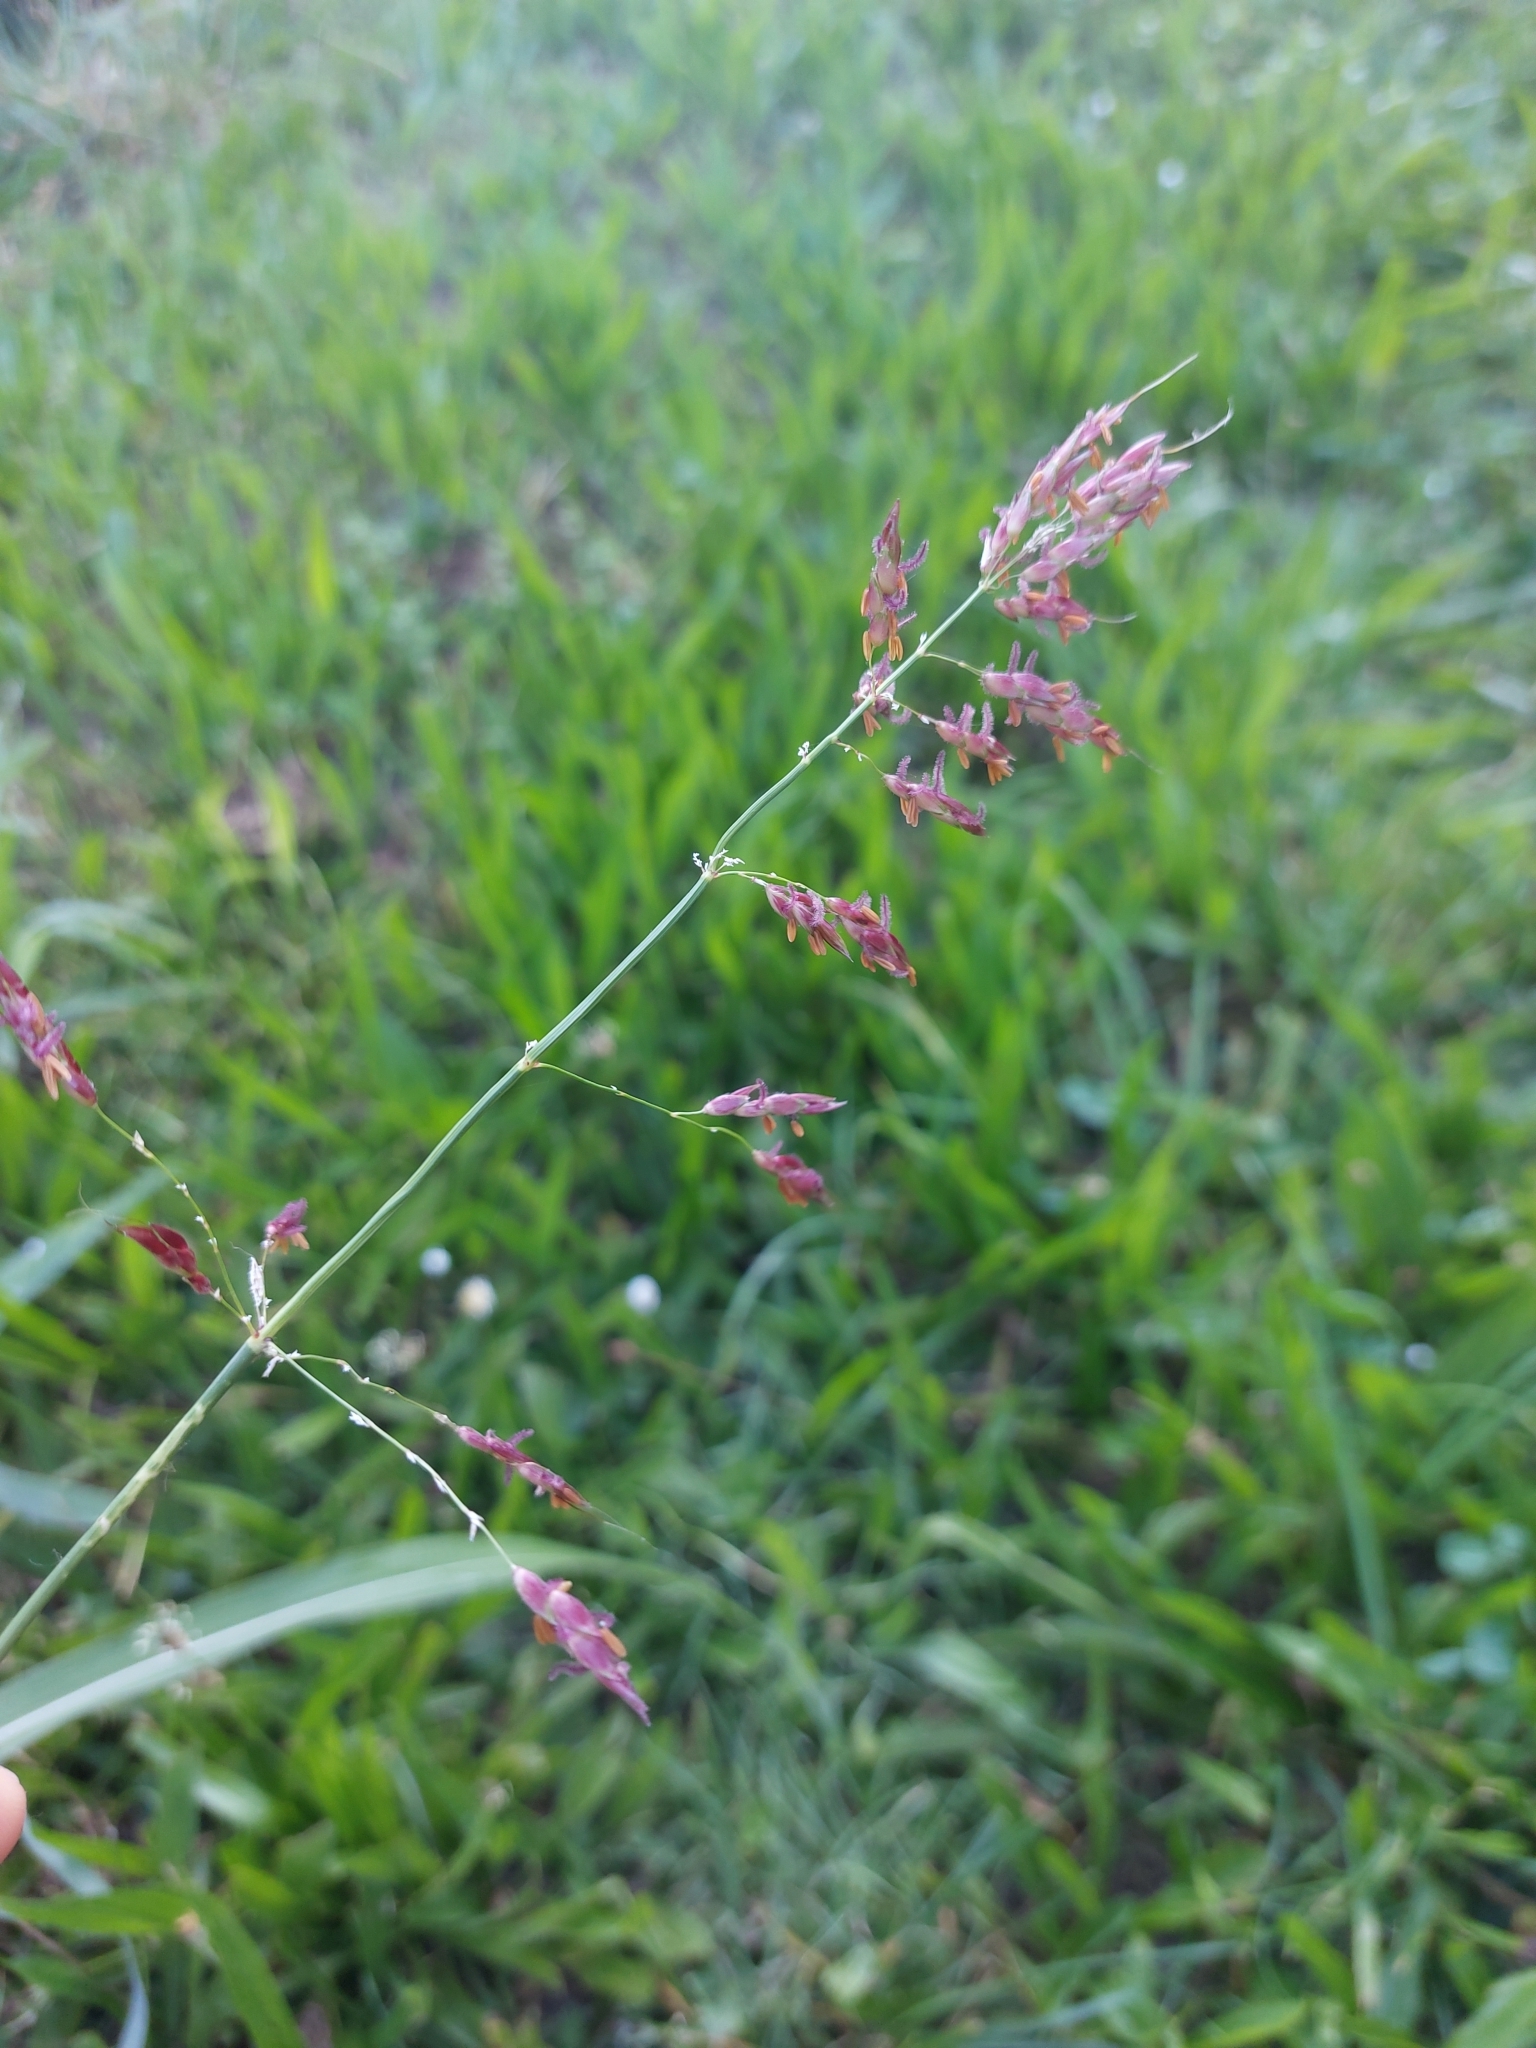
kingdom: Plantae
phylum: Tracheophyta
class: Liliopsida
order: Poales
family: Poaceae
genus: Sorghum
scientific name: Sorghum halepense
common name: Johnson-grass
